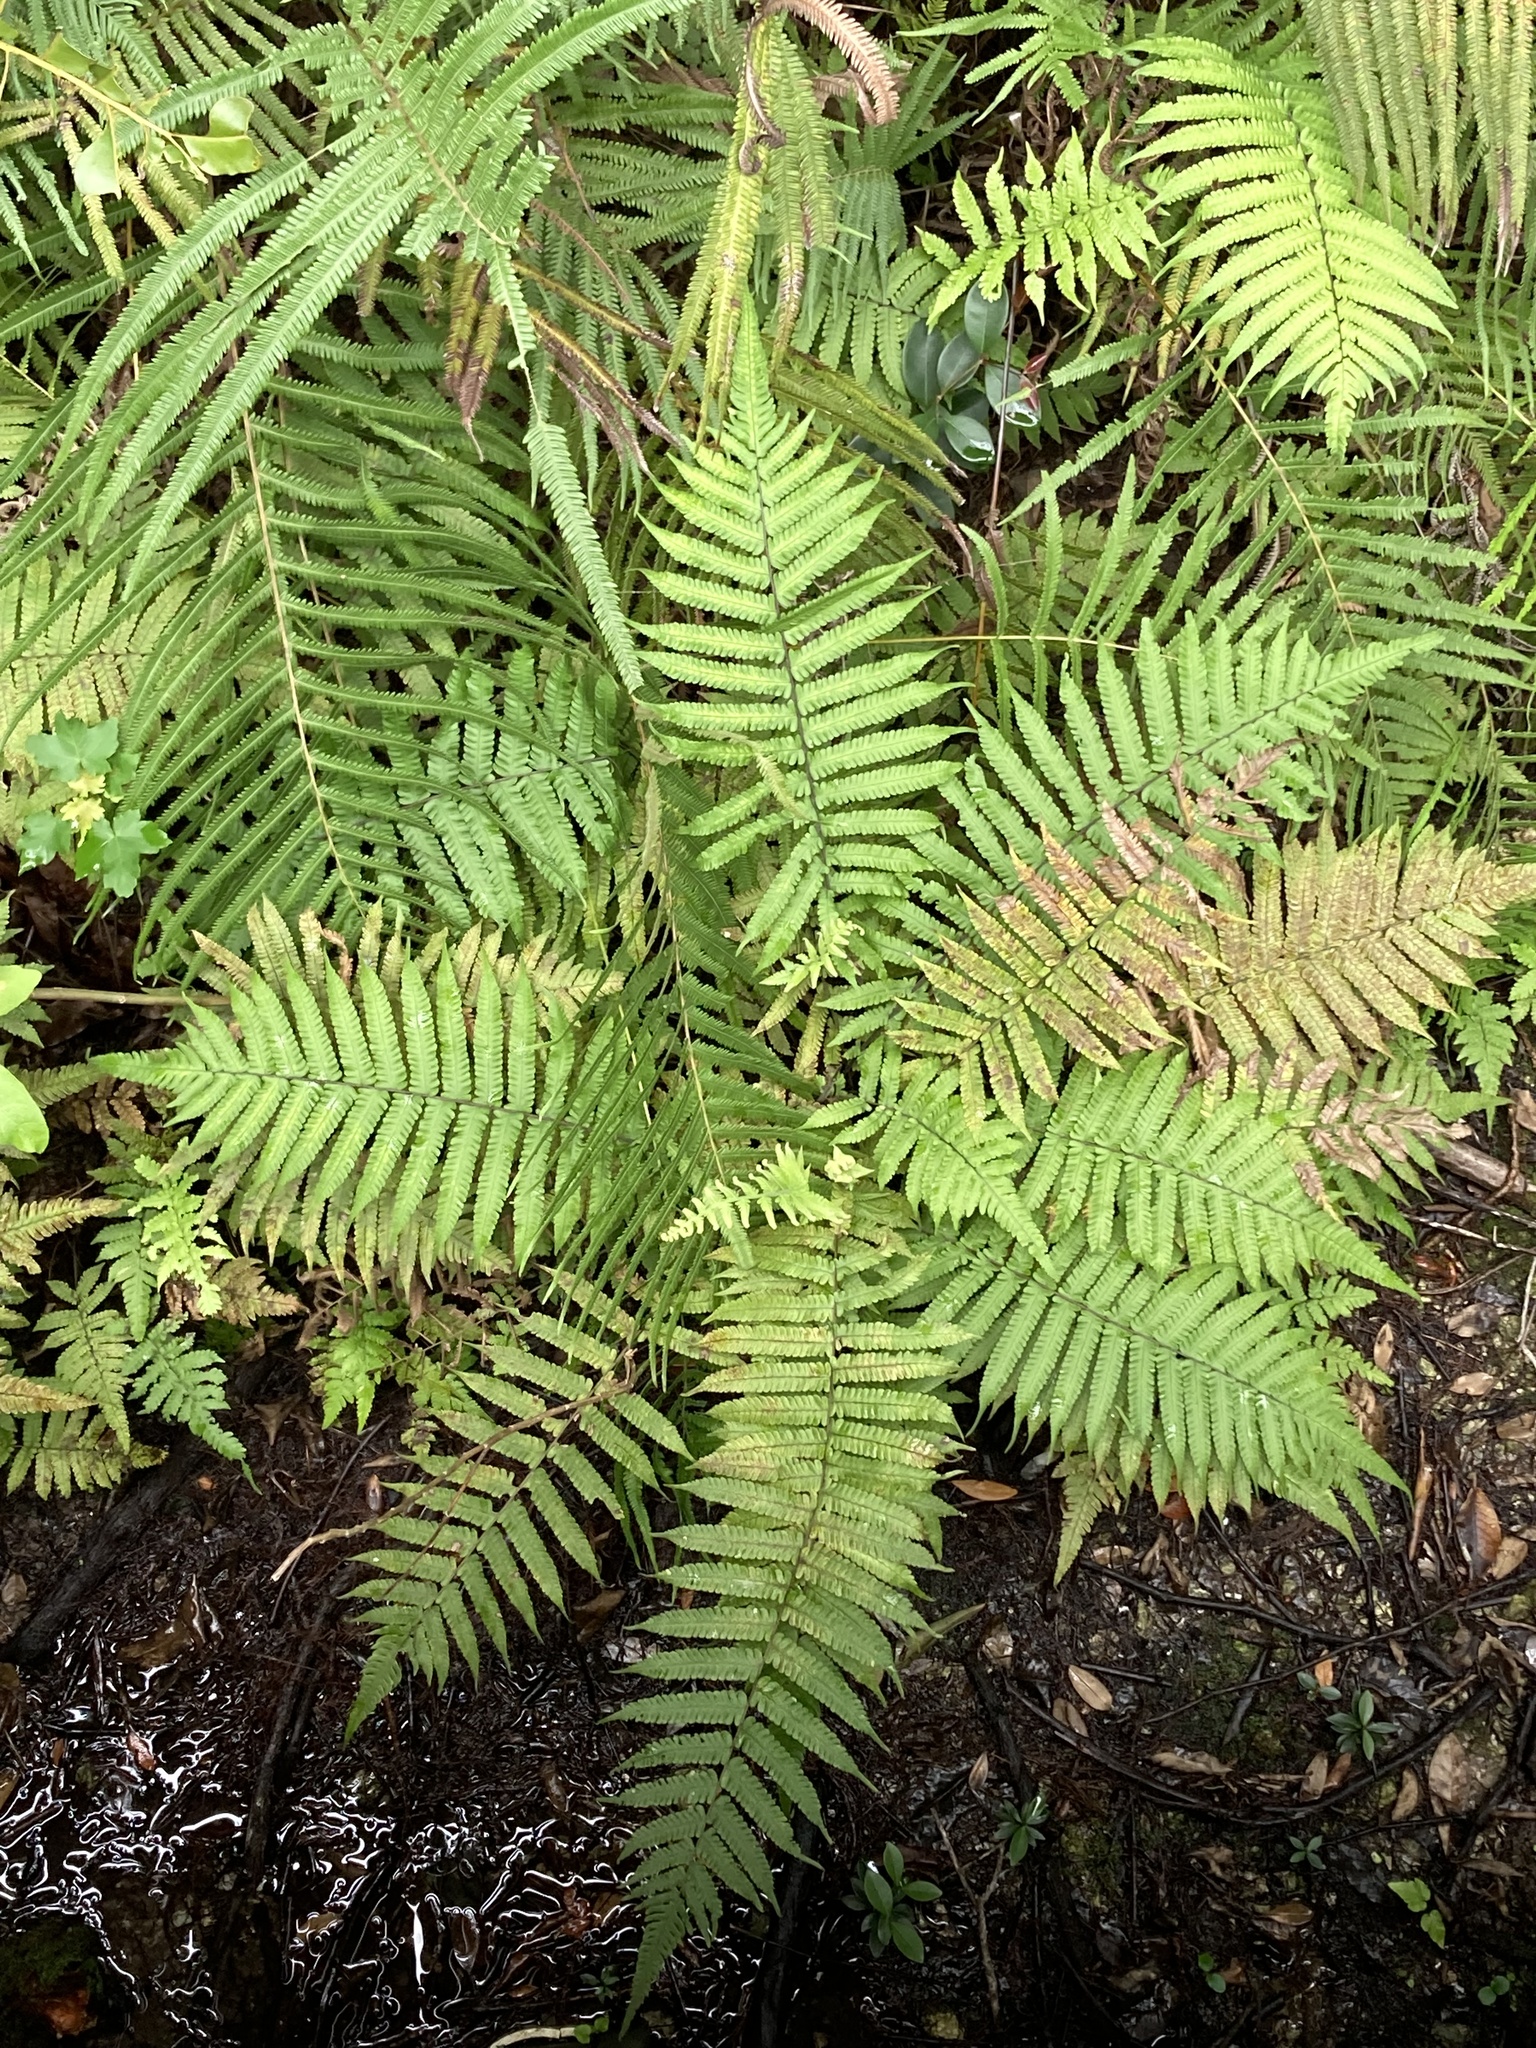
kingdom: Plantae
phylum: Tracheophyta
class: Polypodiopsida
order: Polypodiales
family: Thelypteridaceae
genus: Christella
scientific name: Christella dentata
